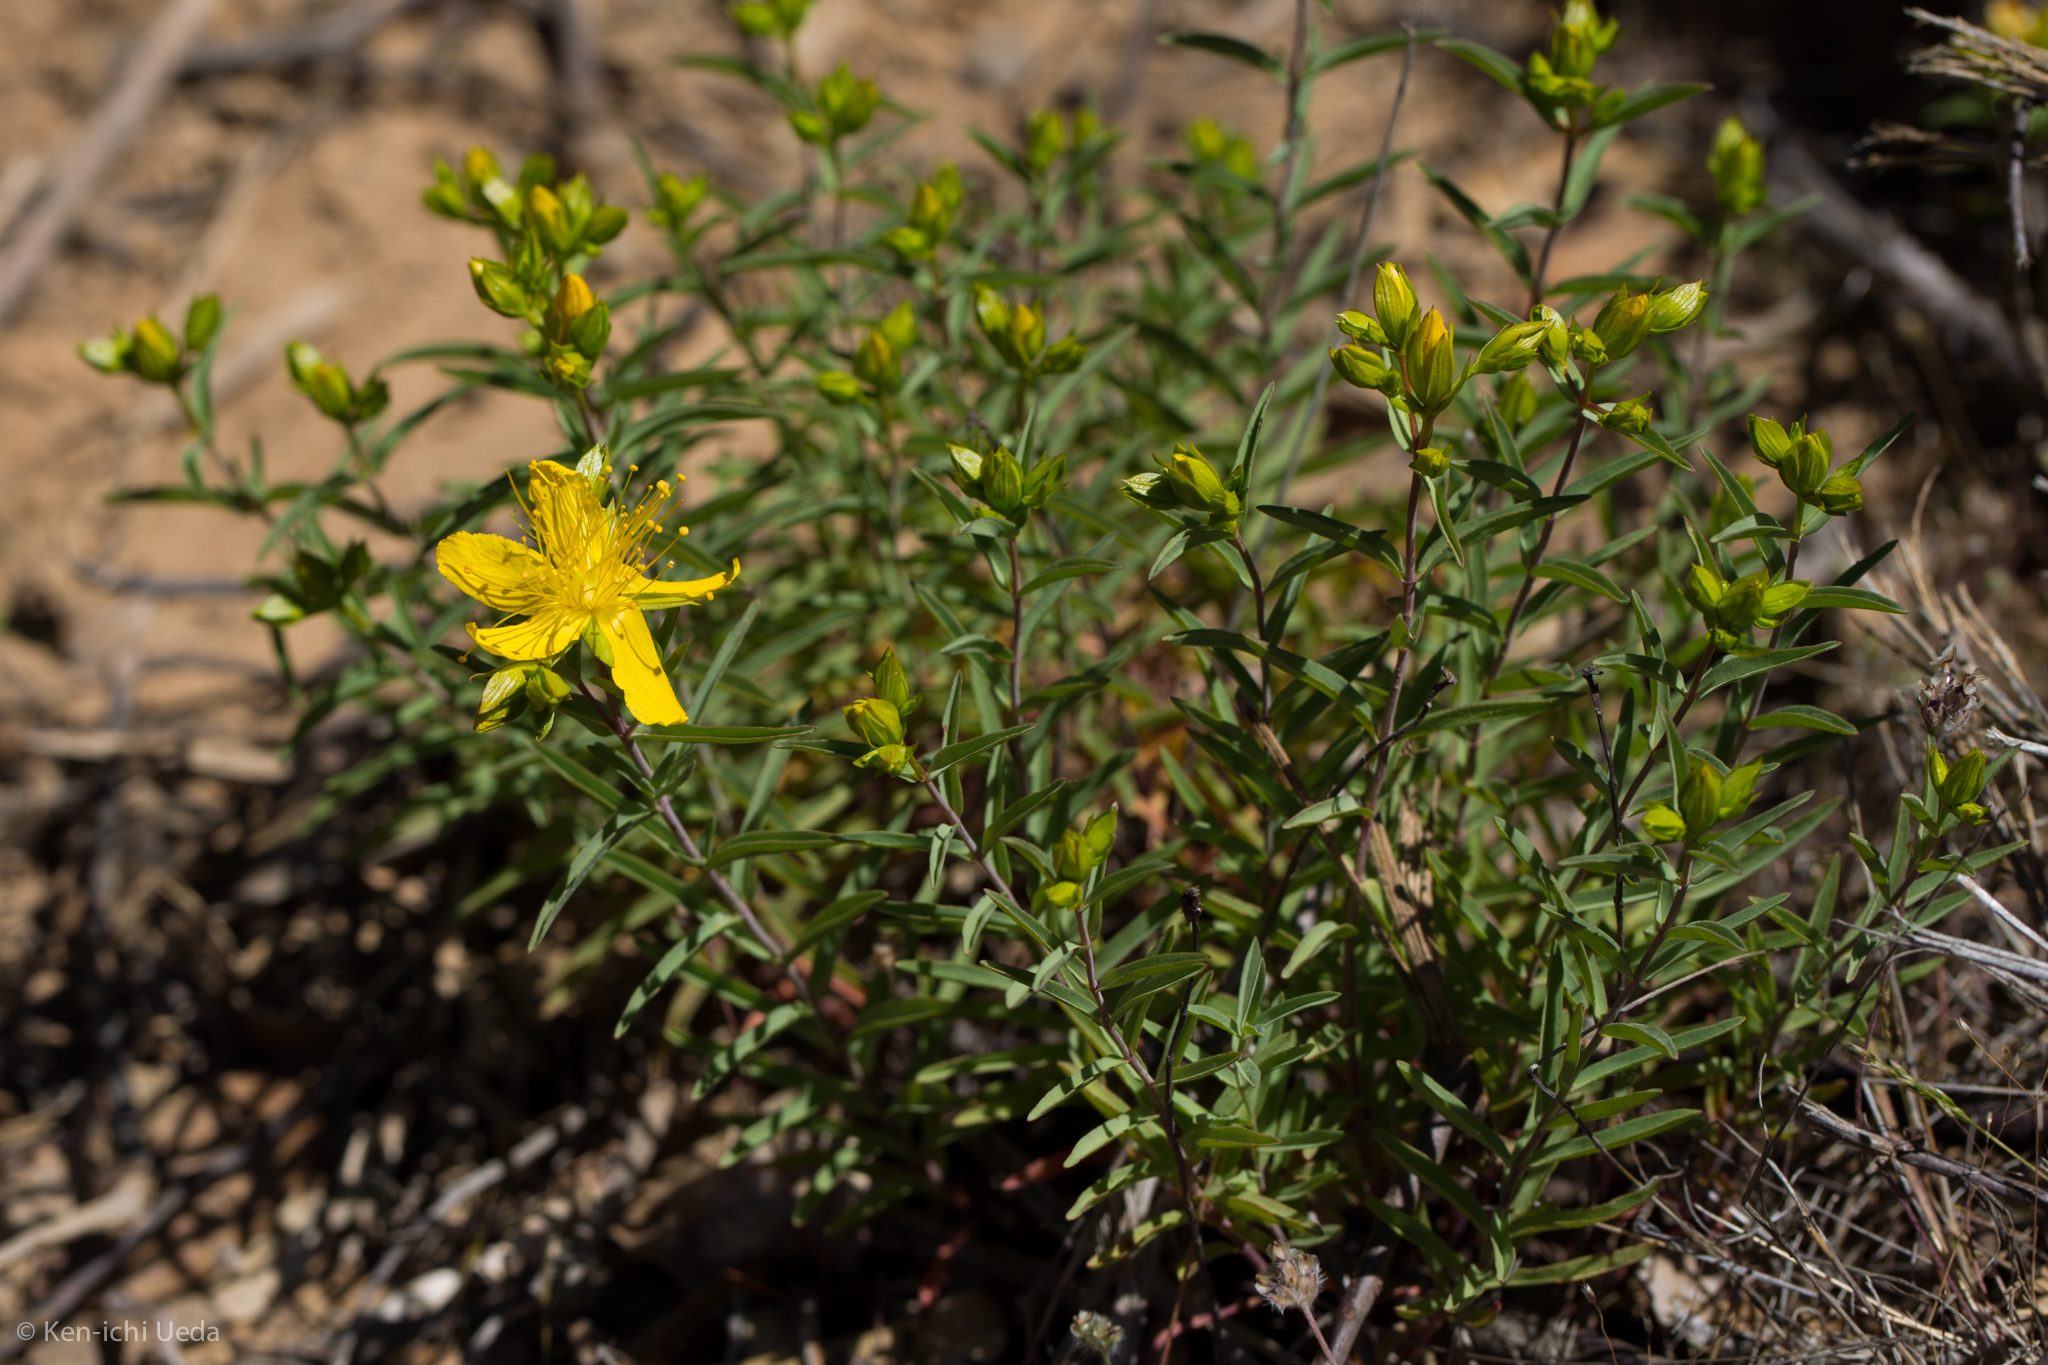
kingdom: Plantae
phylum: Tracheophyta
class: Magnoliopsida
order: Malpighiales
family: Hypericaceae
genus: Hypericum
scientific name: Hypericum concinnum
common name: Gold-wire
